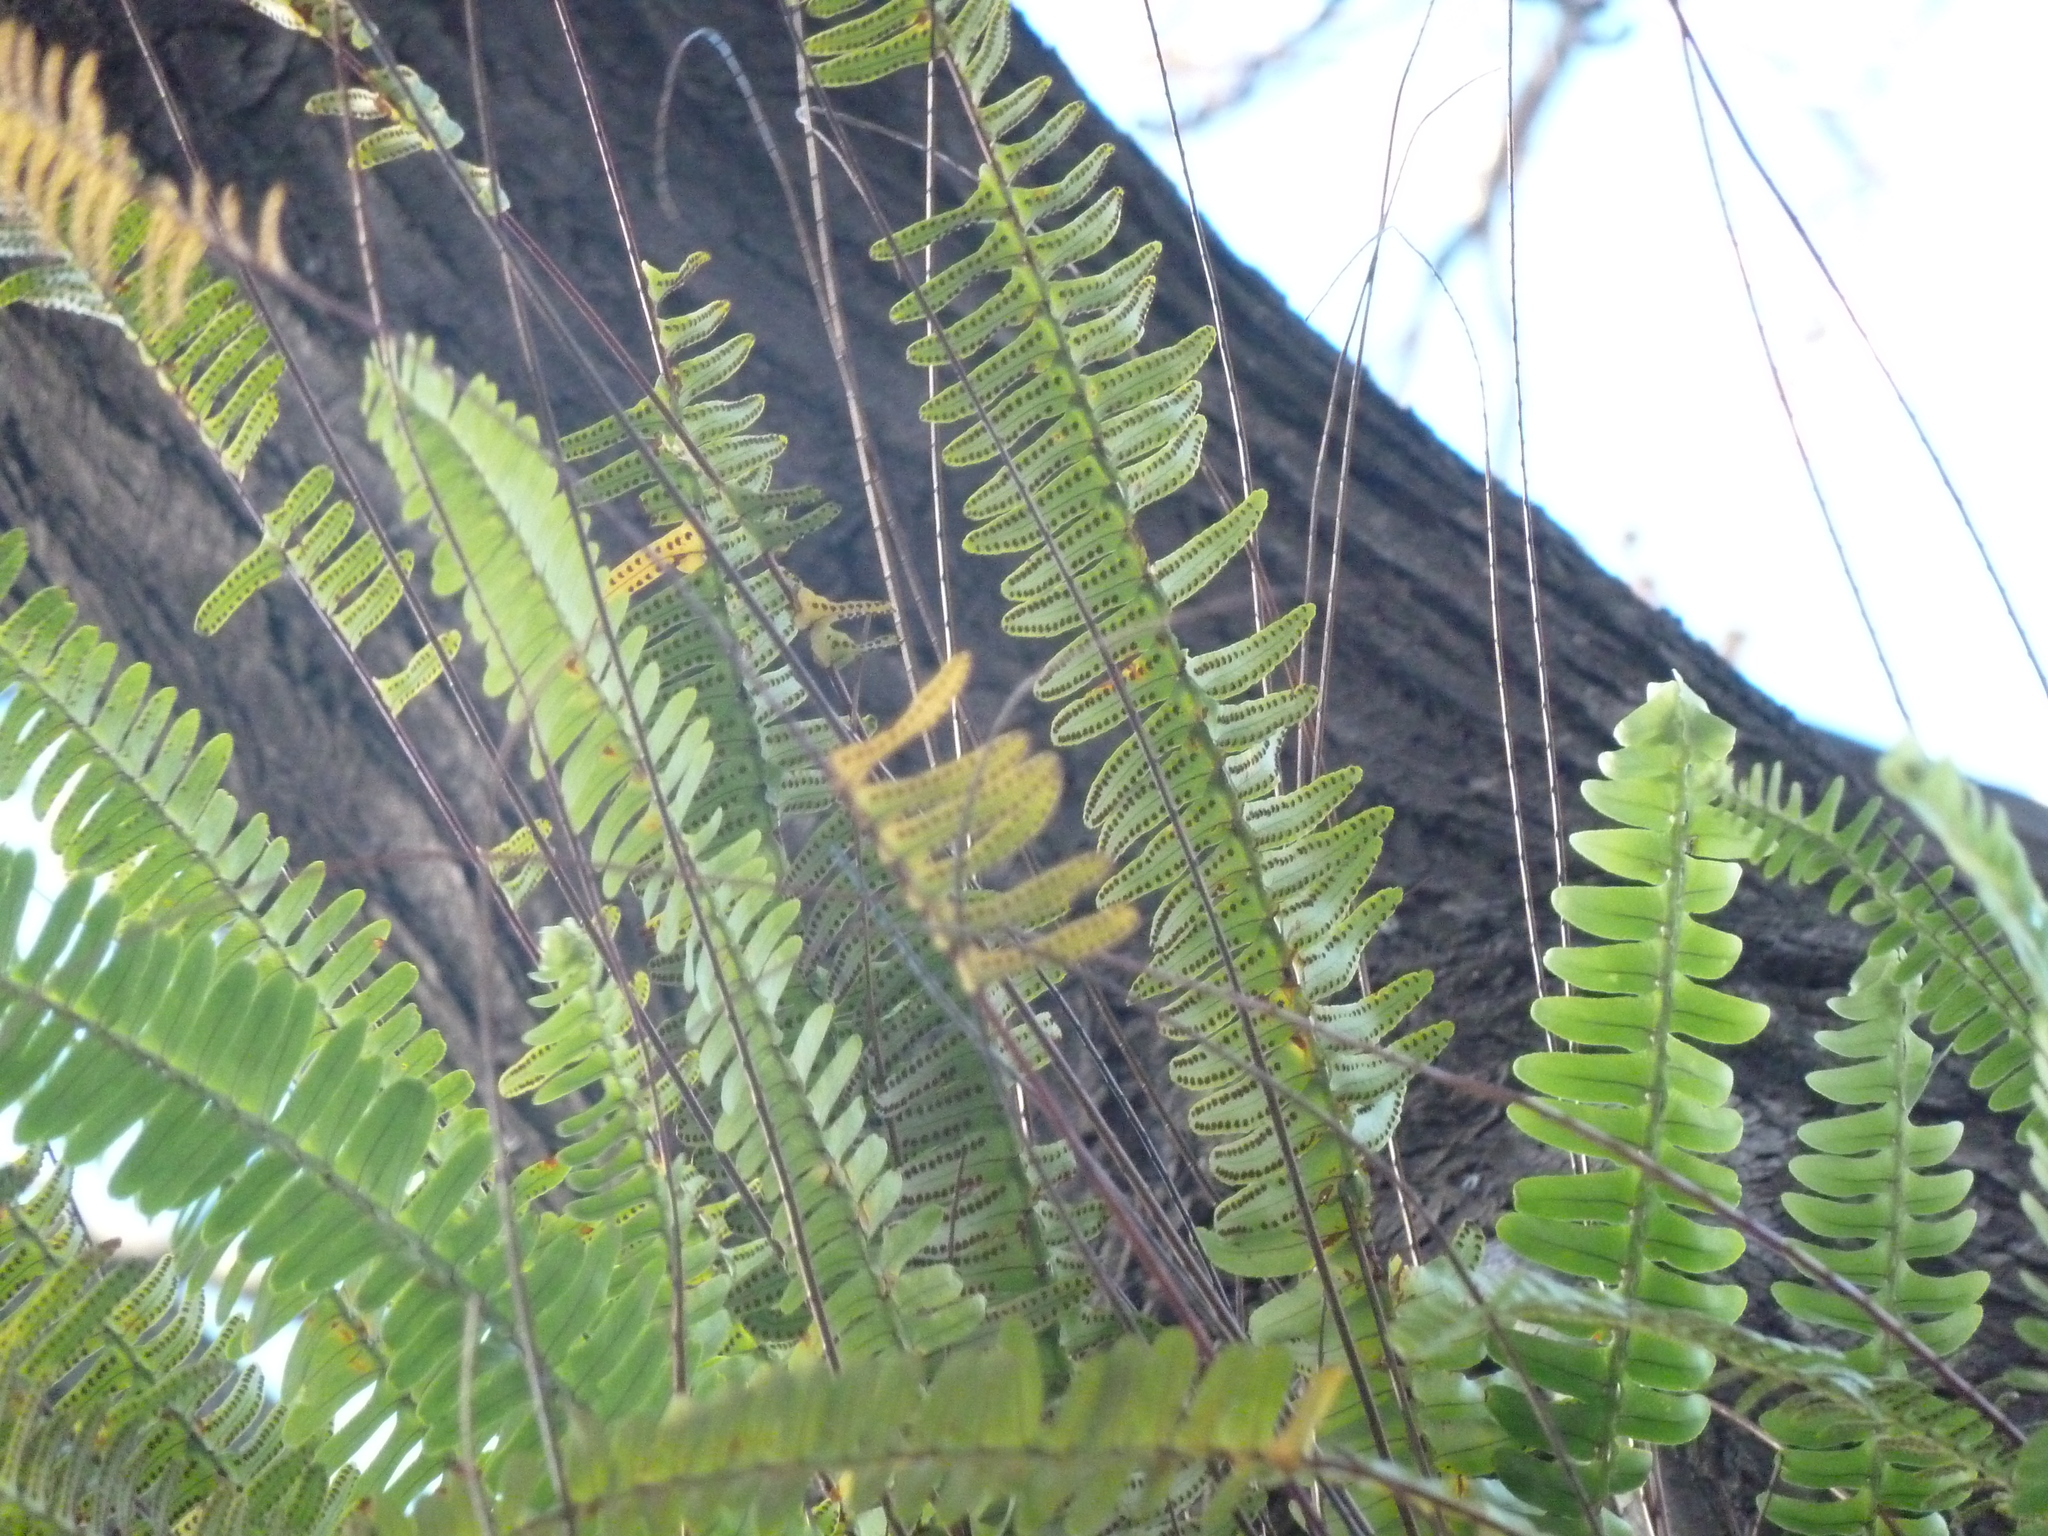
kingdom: Plantae
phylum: Tracheophyta
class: Polypodiopsida
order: Polypodiales
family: Nephrolepidaceae
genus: Nephrolepis
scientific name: Nephrolepis cordifolia
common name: Narrow swordfern
